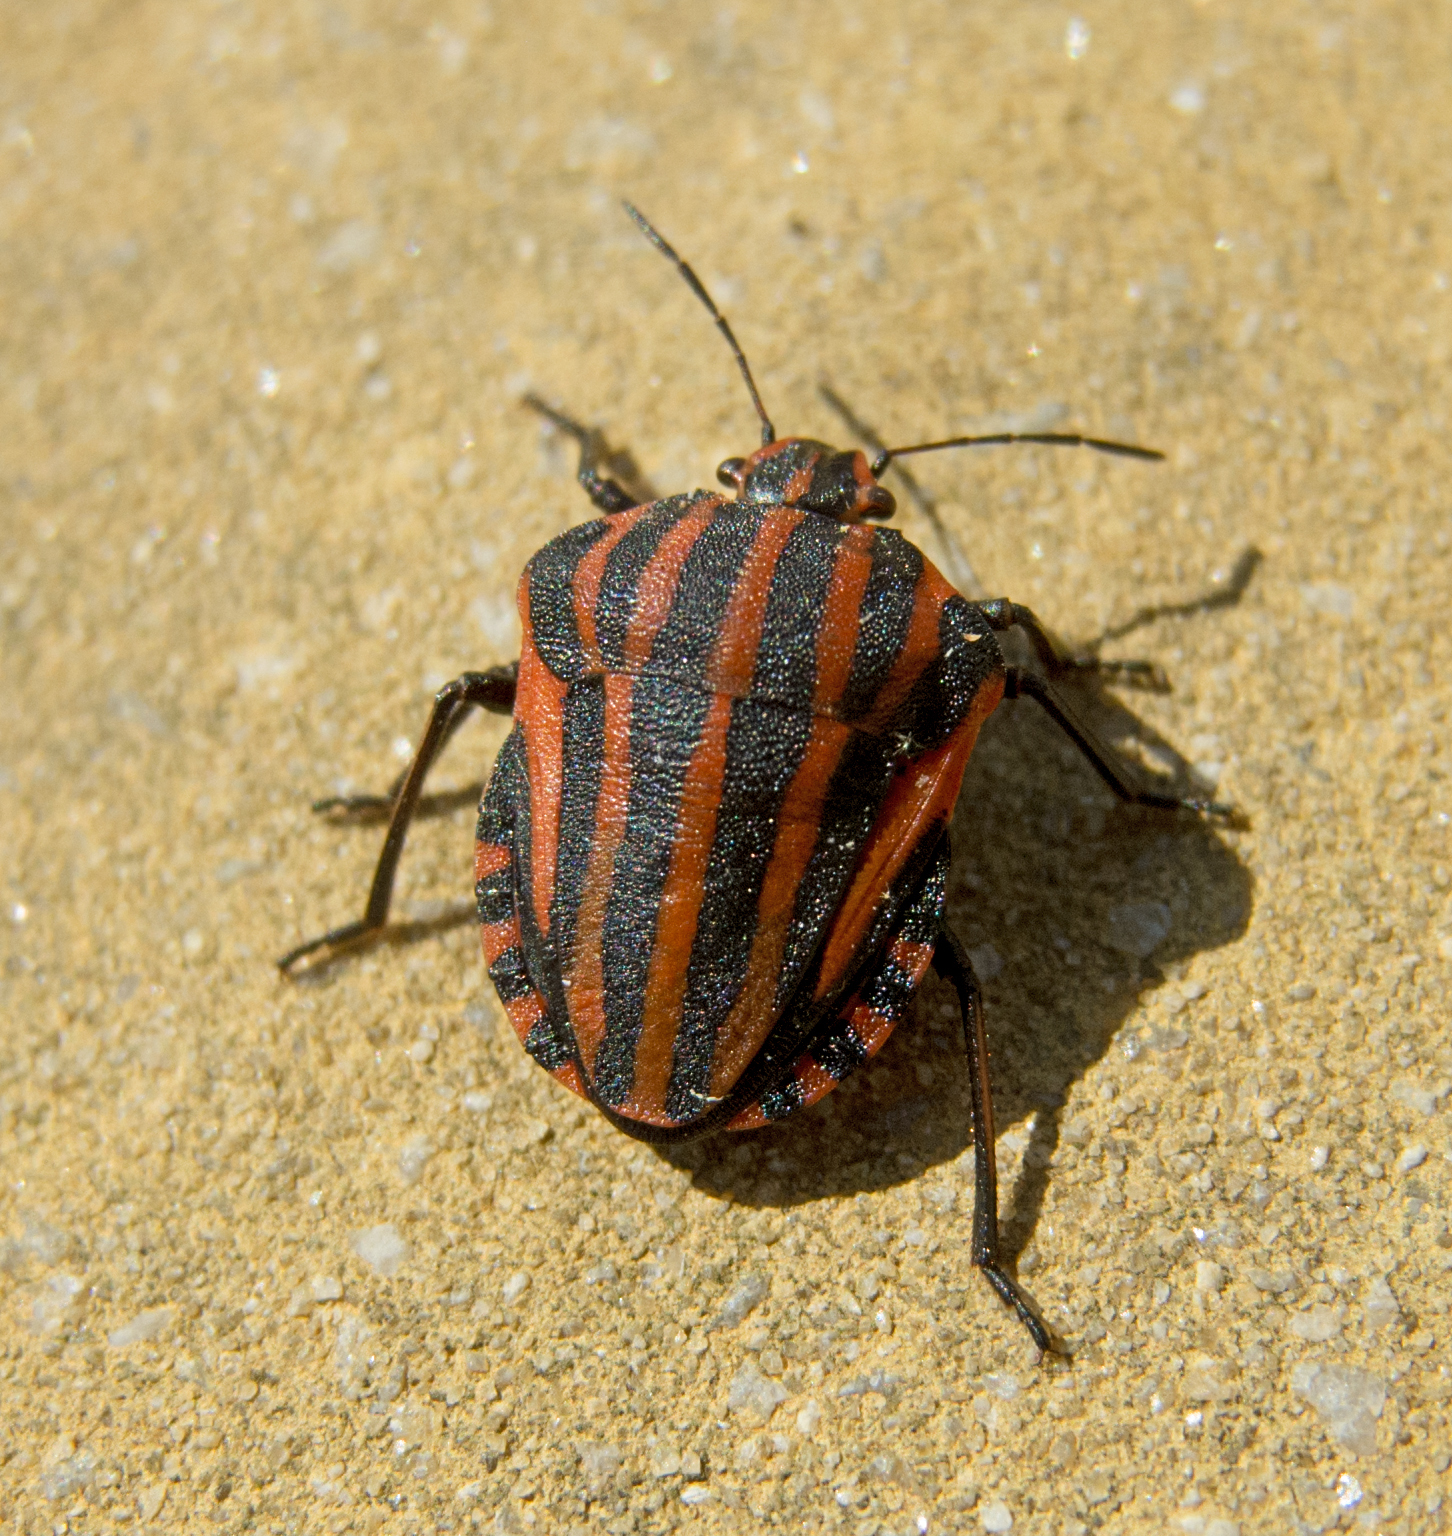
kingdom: Animalia
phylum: Arthropoda
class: Insecta
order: Hemiptera
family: Pentatomidae
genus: Graphosoma
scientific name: Graphosoma italicum
